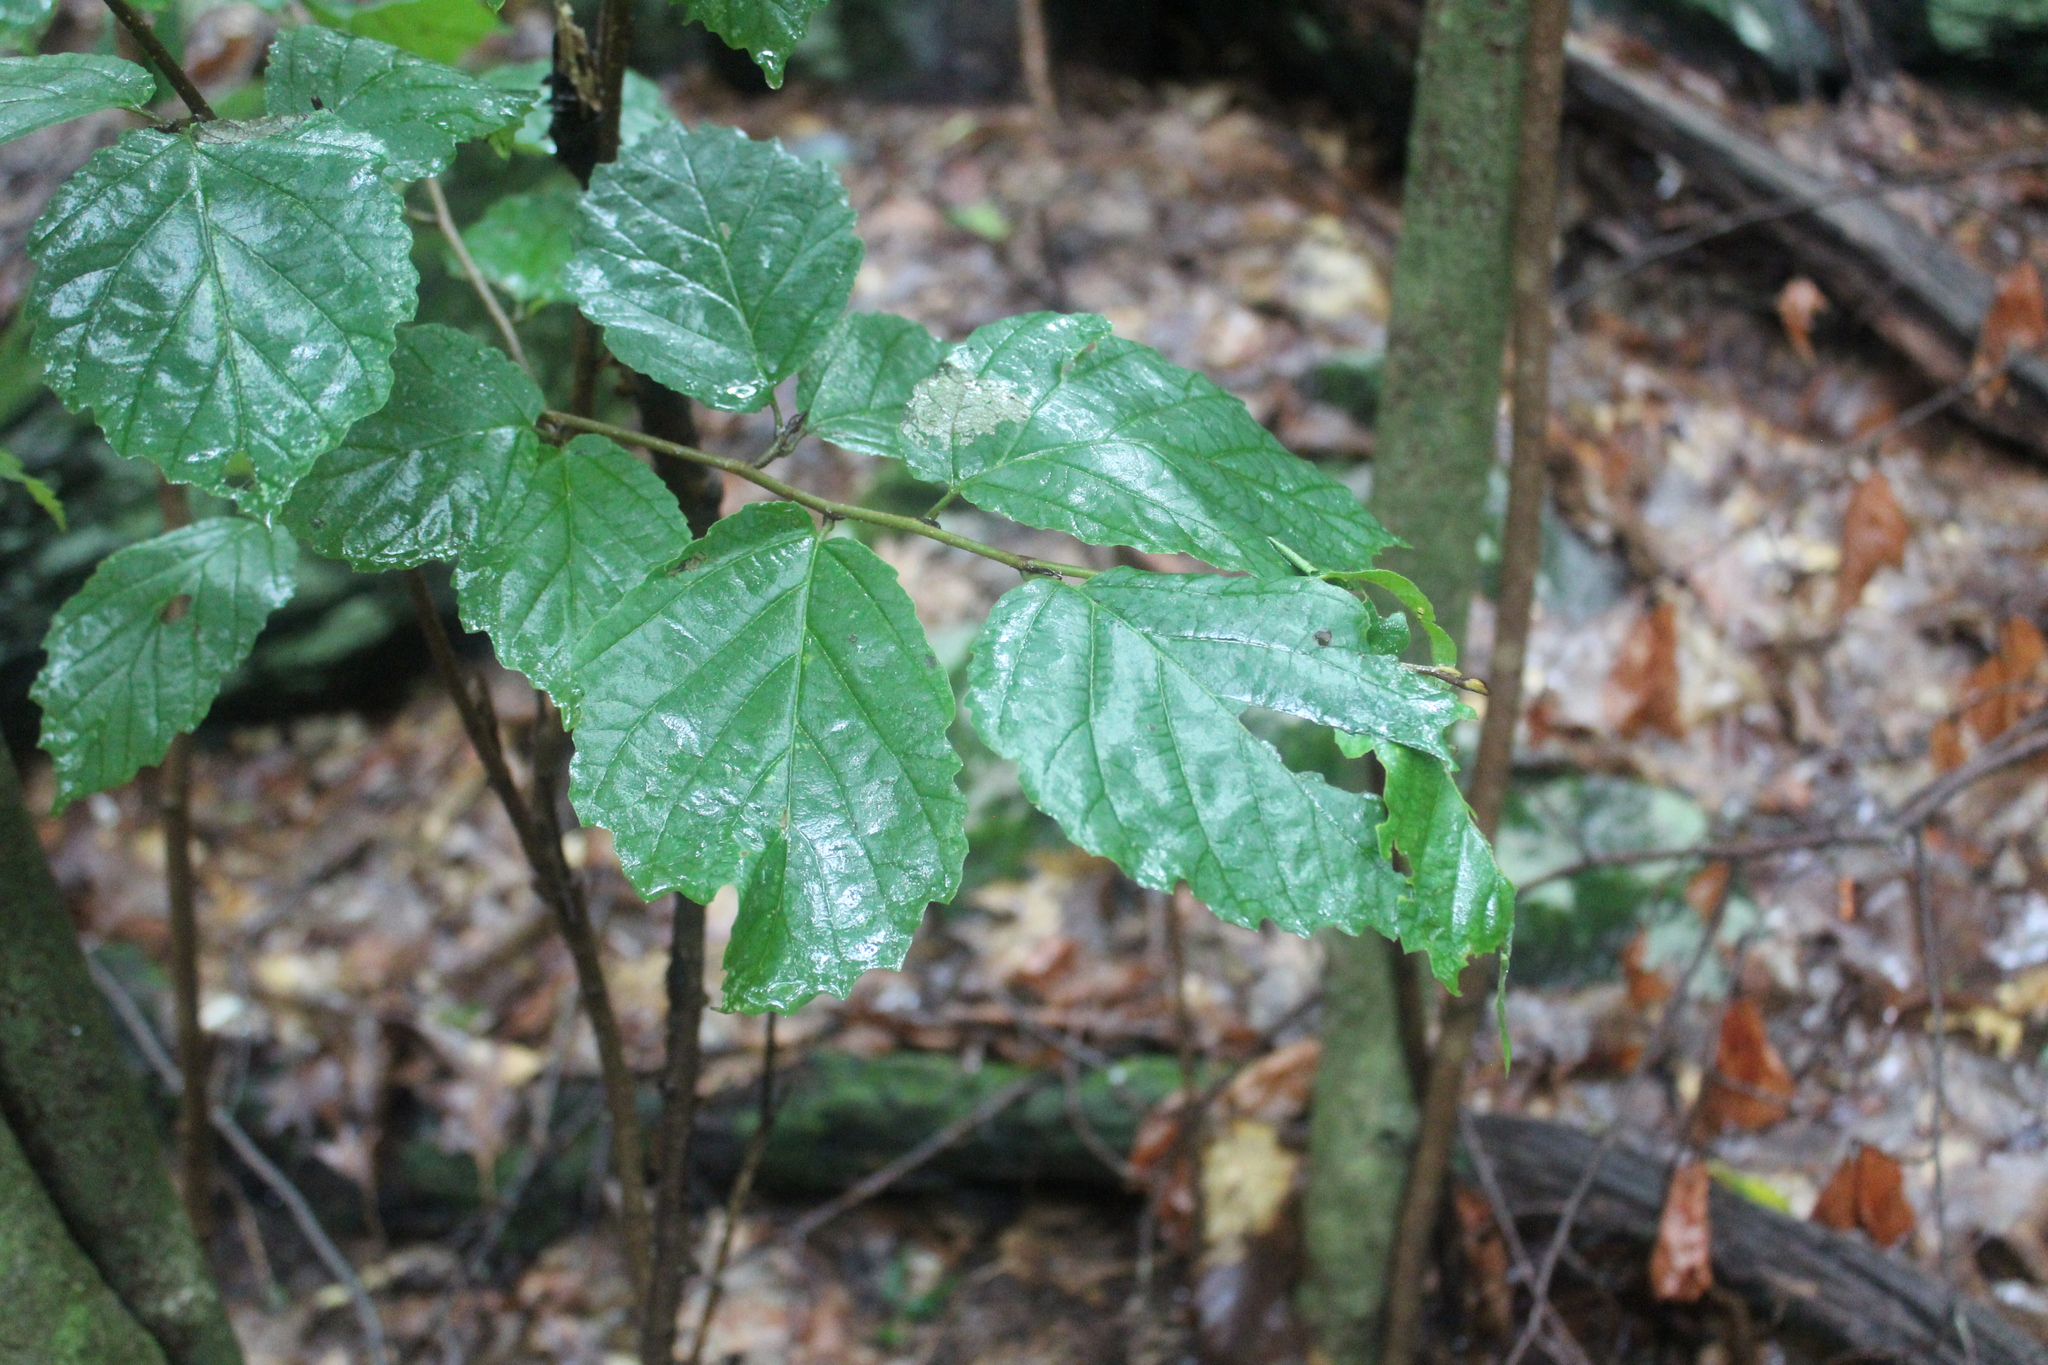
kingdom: Plantae
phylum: Tracheophyta
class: Magnoliopsida
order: Saxifragales
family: Hamamelidaceae
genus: Hamamelis
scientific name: Hamamelis virginiana
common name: Witch-hazel
